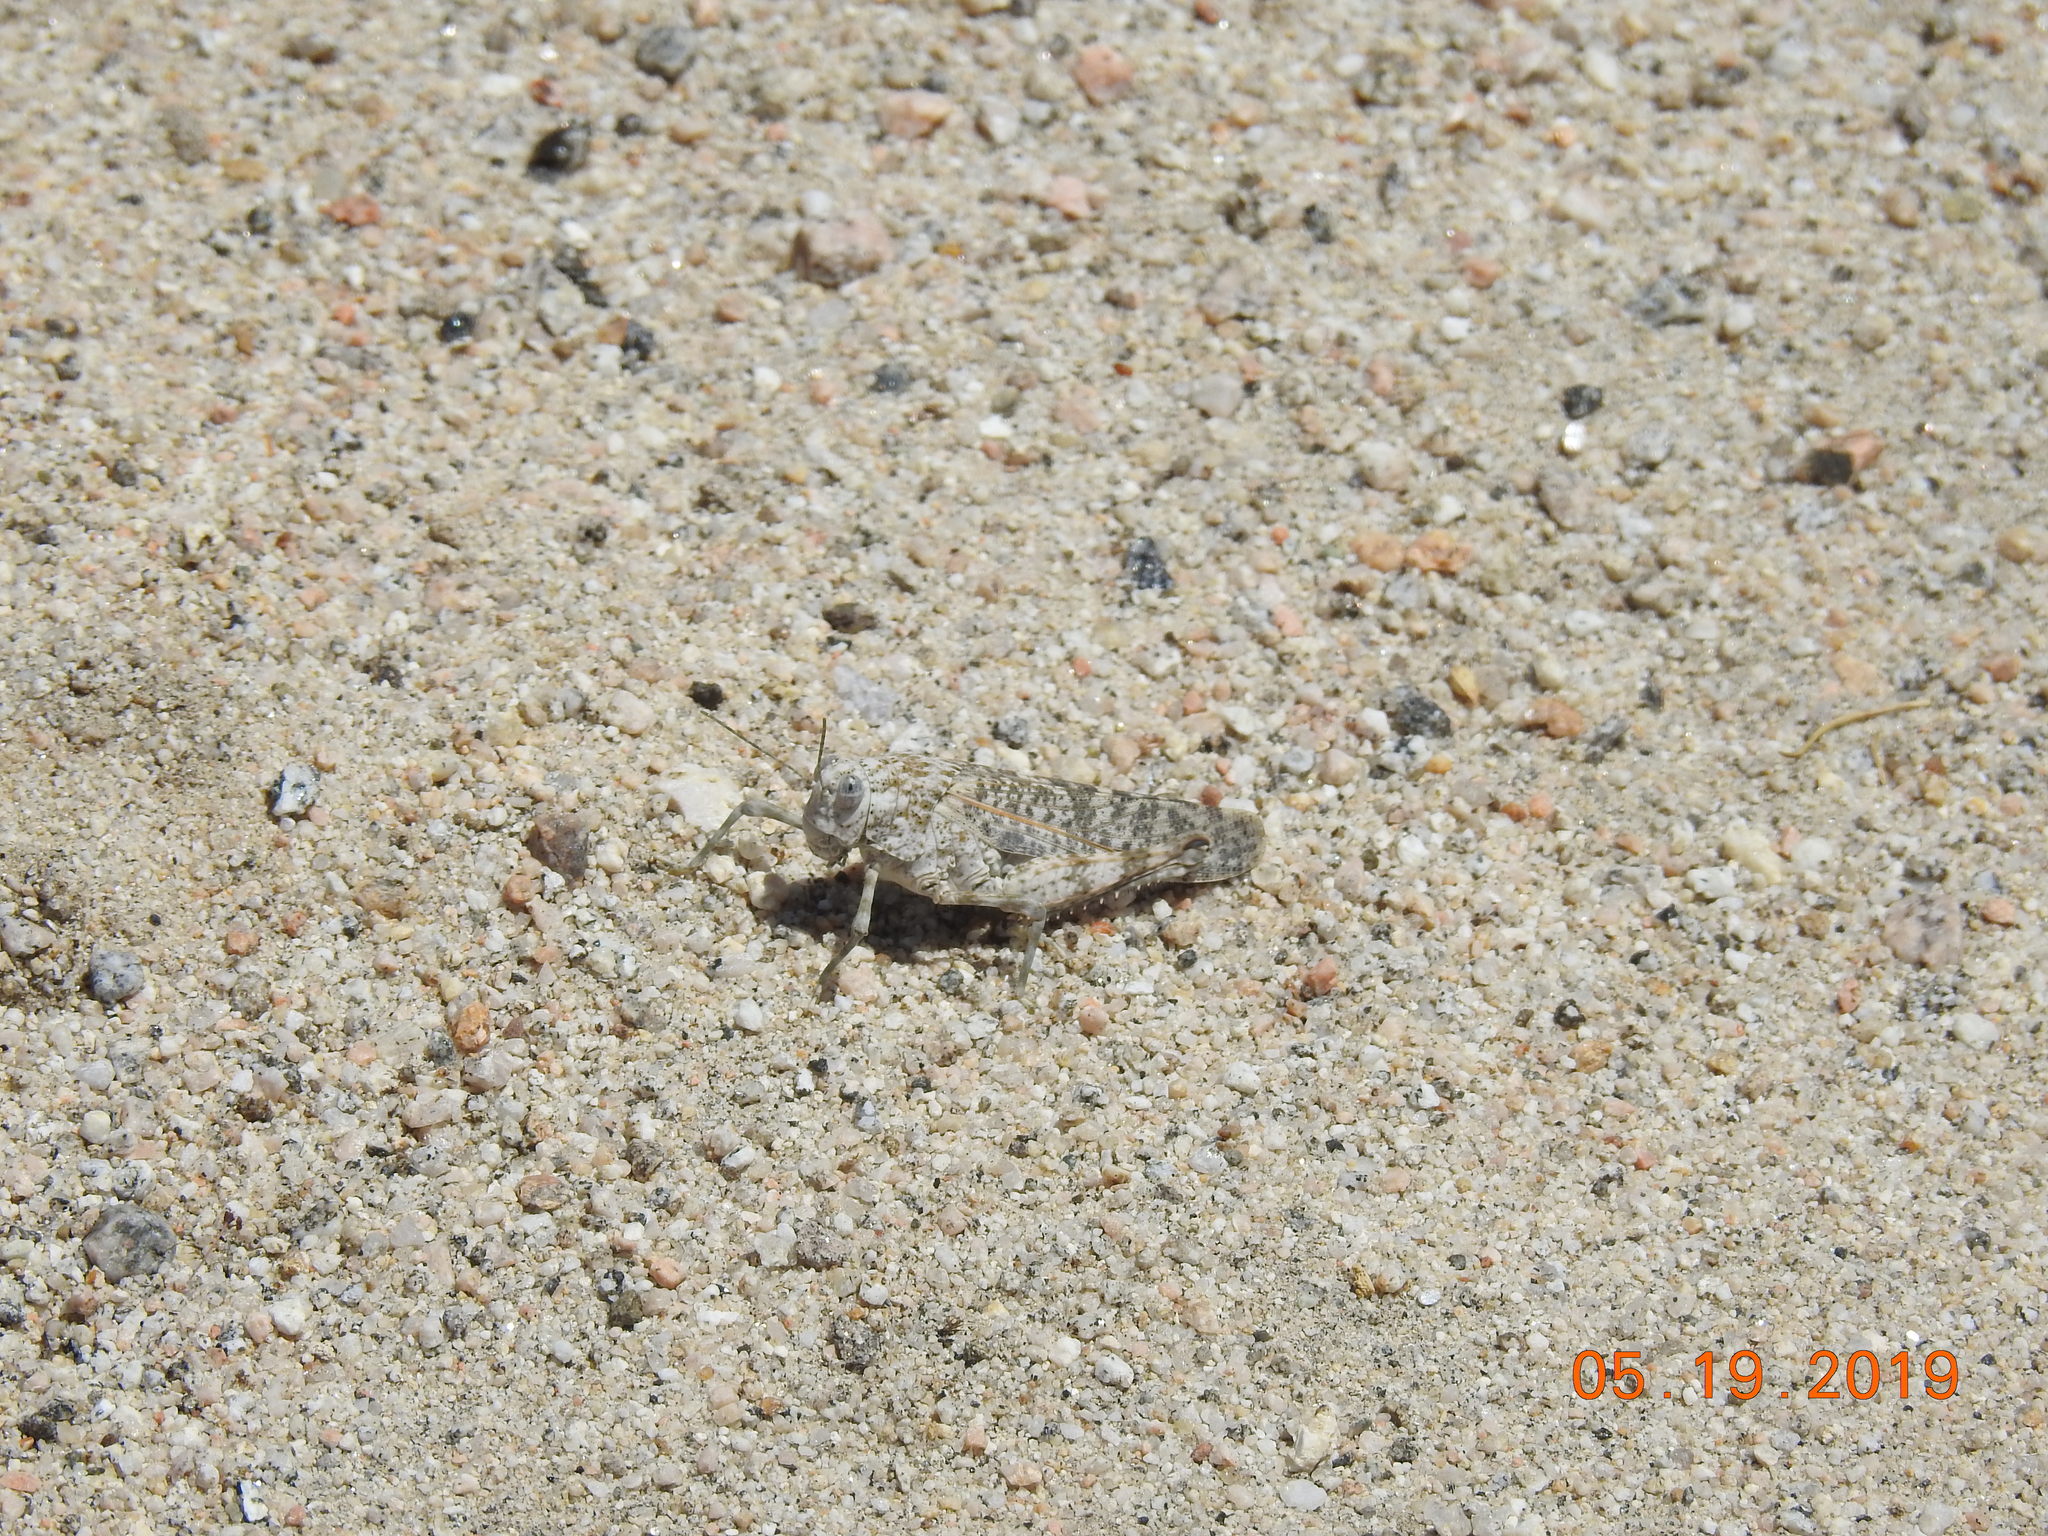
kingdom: Animalia
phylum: Arthropoda
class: Insecta
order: Orthoptera
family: Romaleidae
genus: Tytthotyle
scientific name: Tytthotyle maculata
